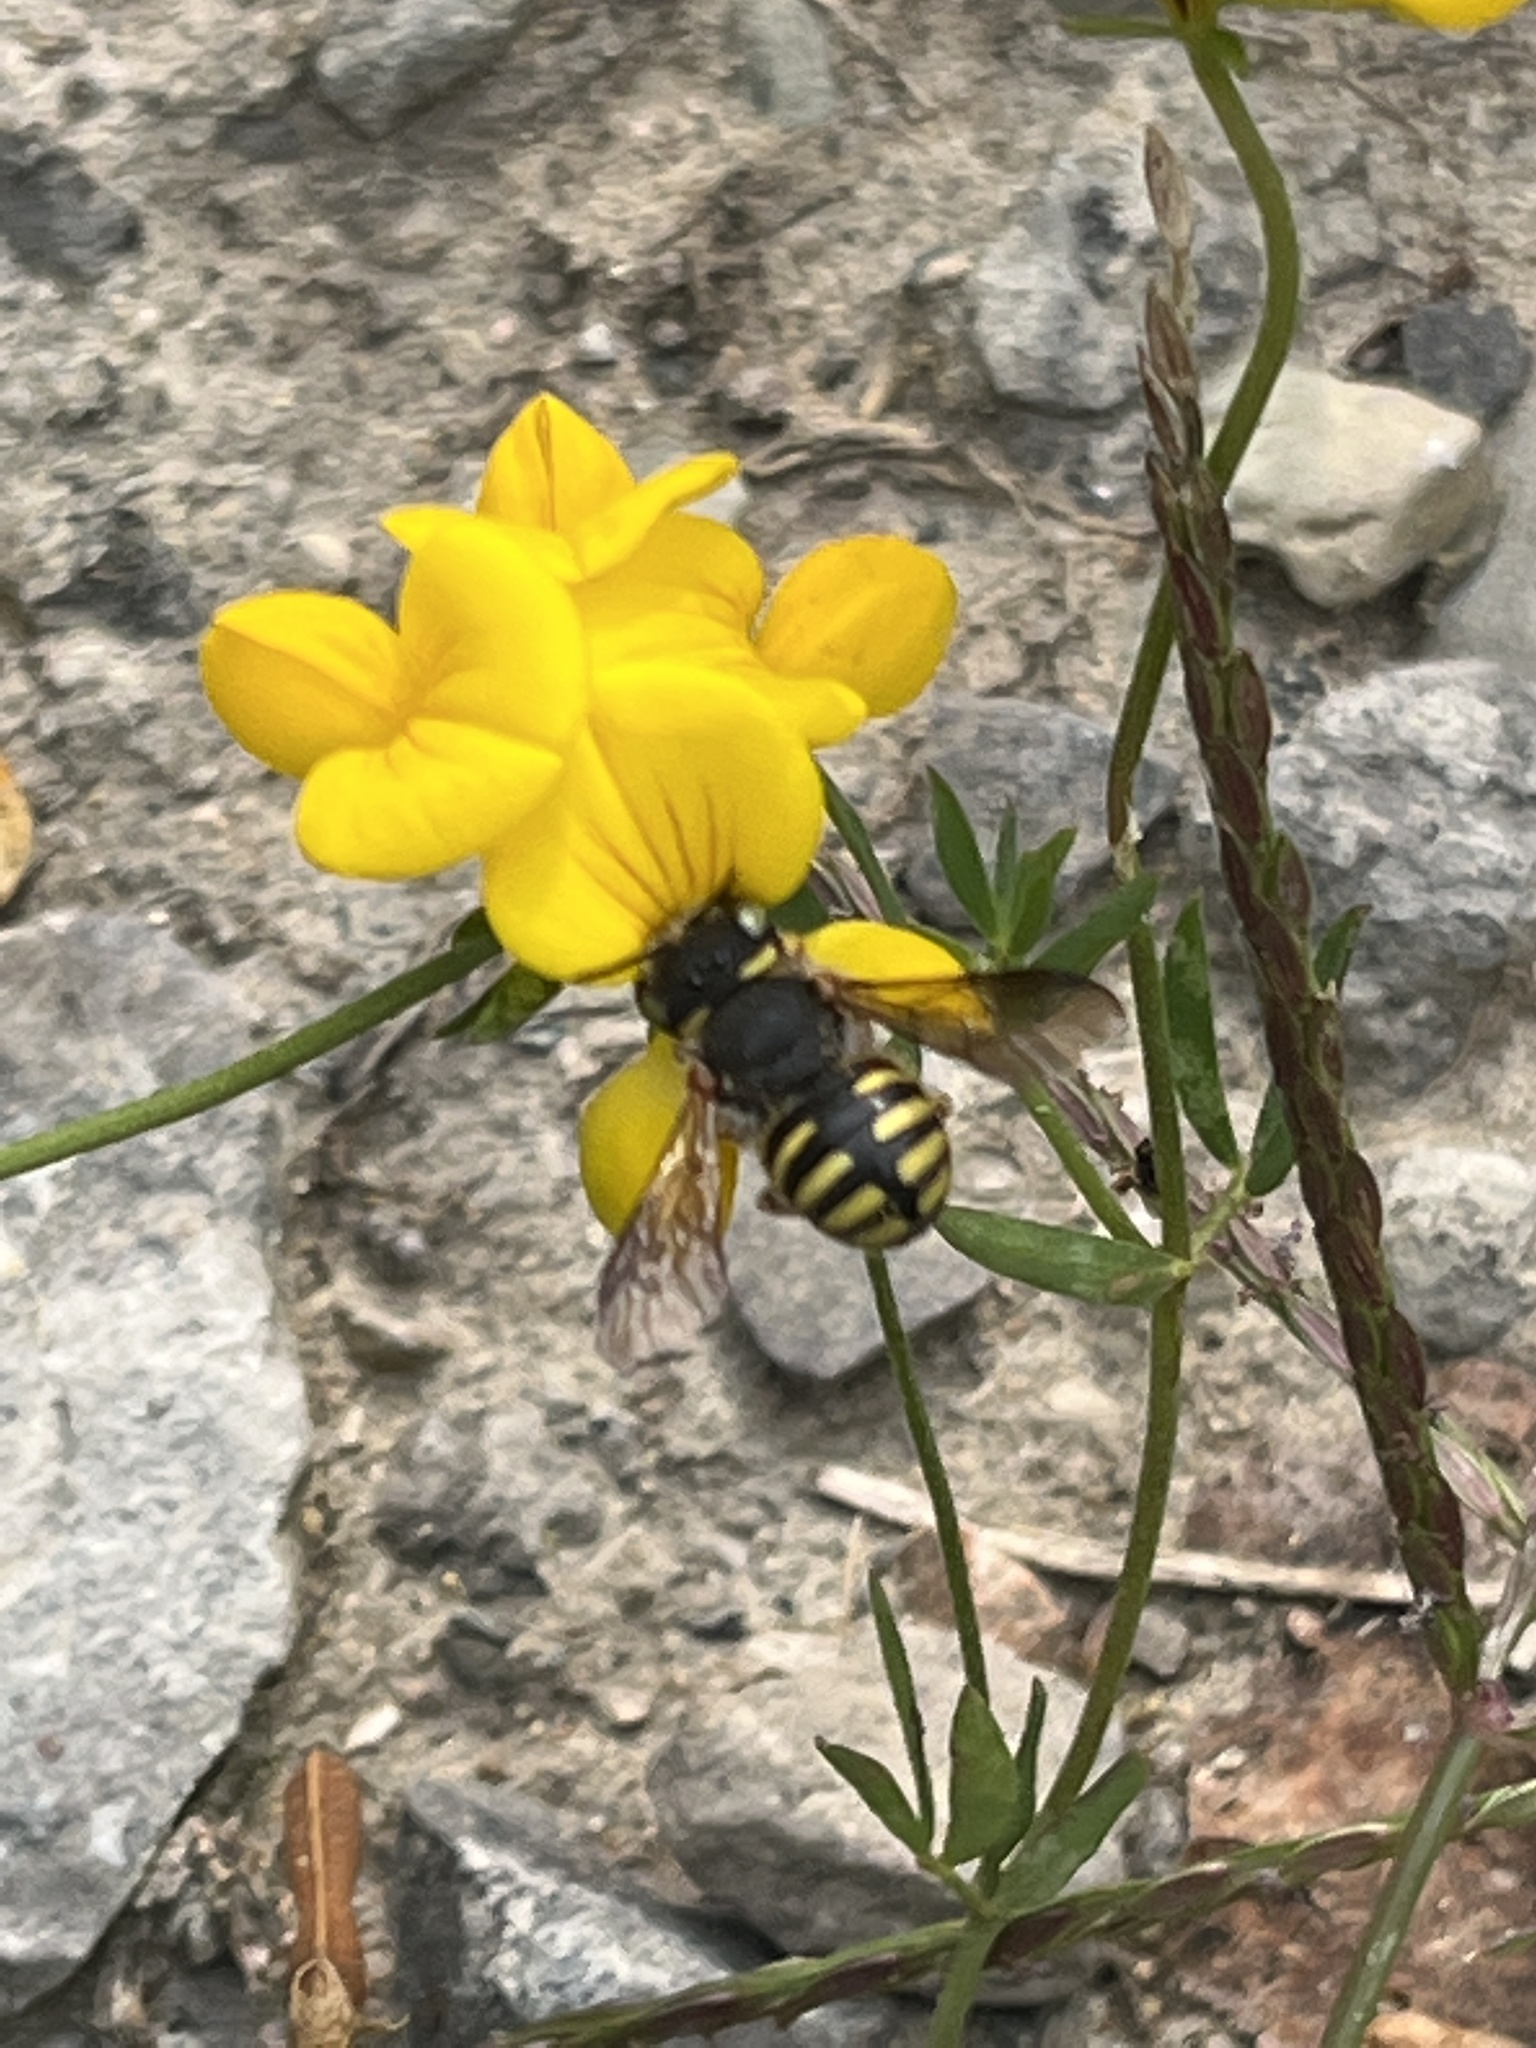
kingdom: Animalia
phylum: Arthropoda
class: Insecta
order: Hymenoptera
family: Megachilidae
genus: Anthidium
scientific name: Anthidium oblongatum
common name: Oblong wool carder bee
